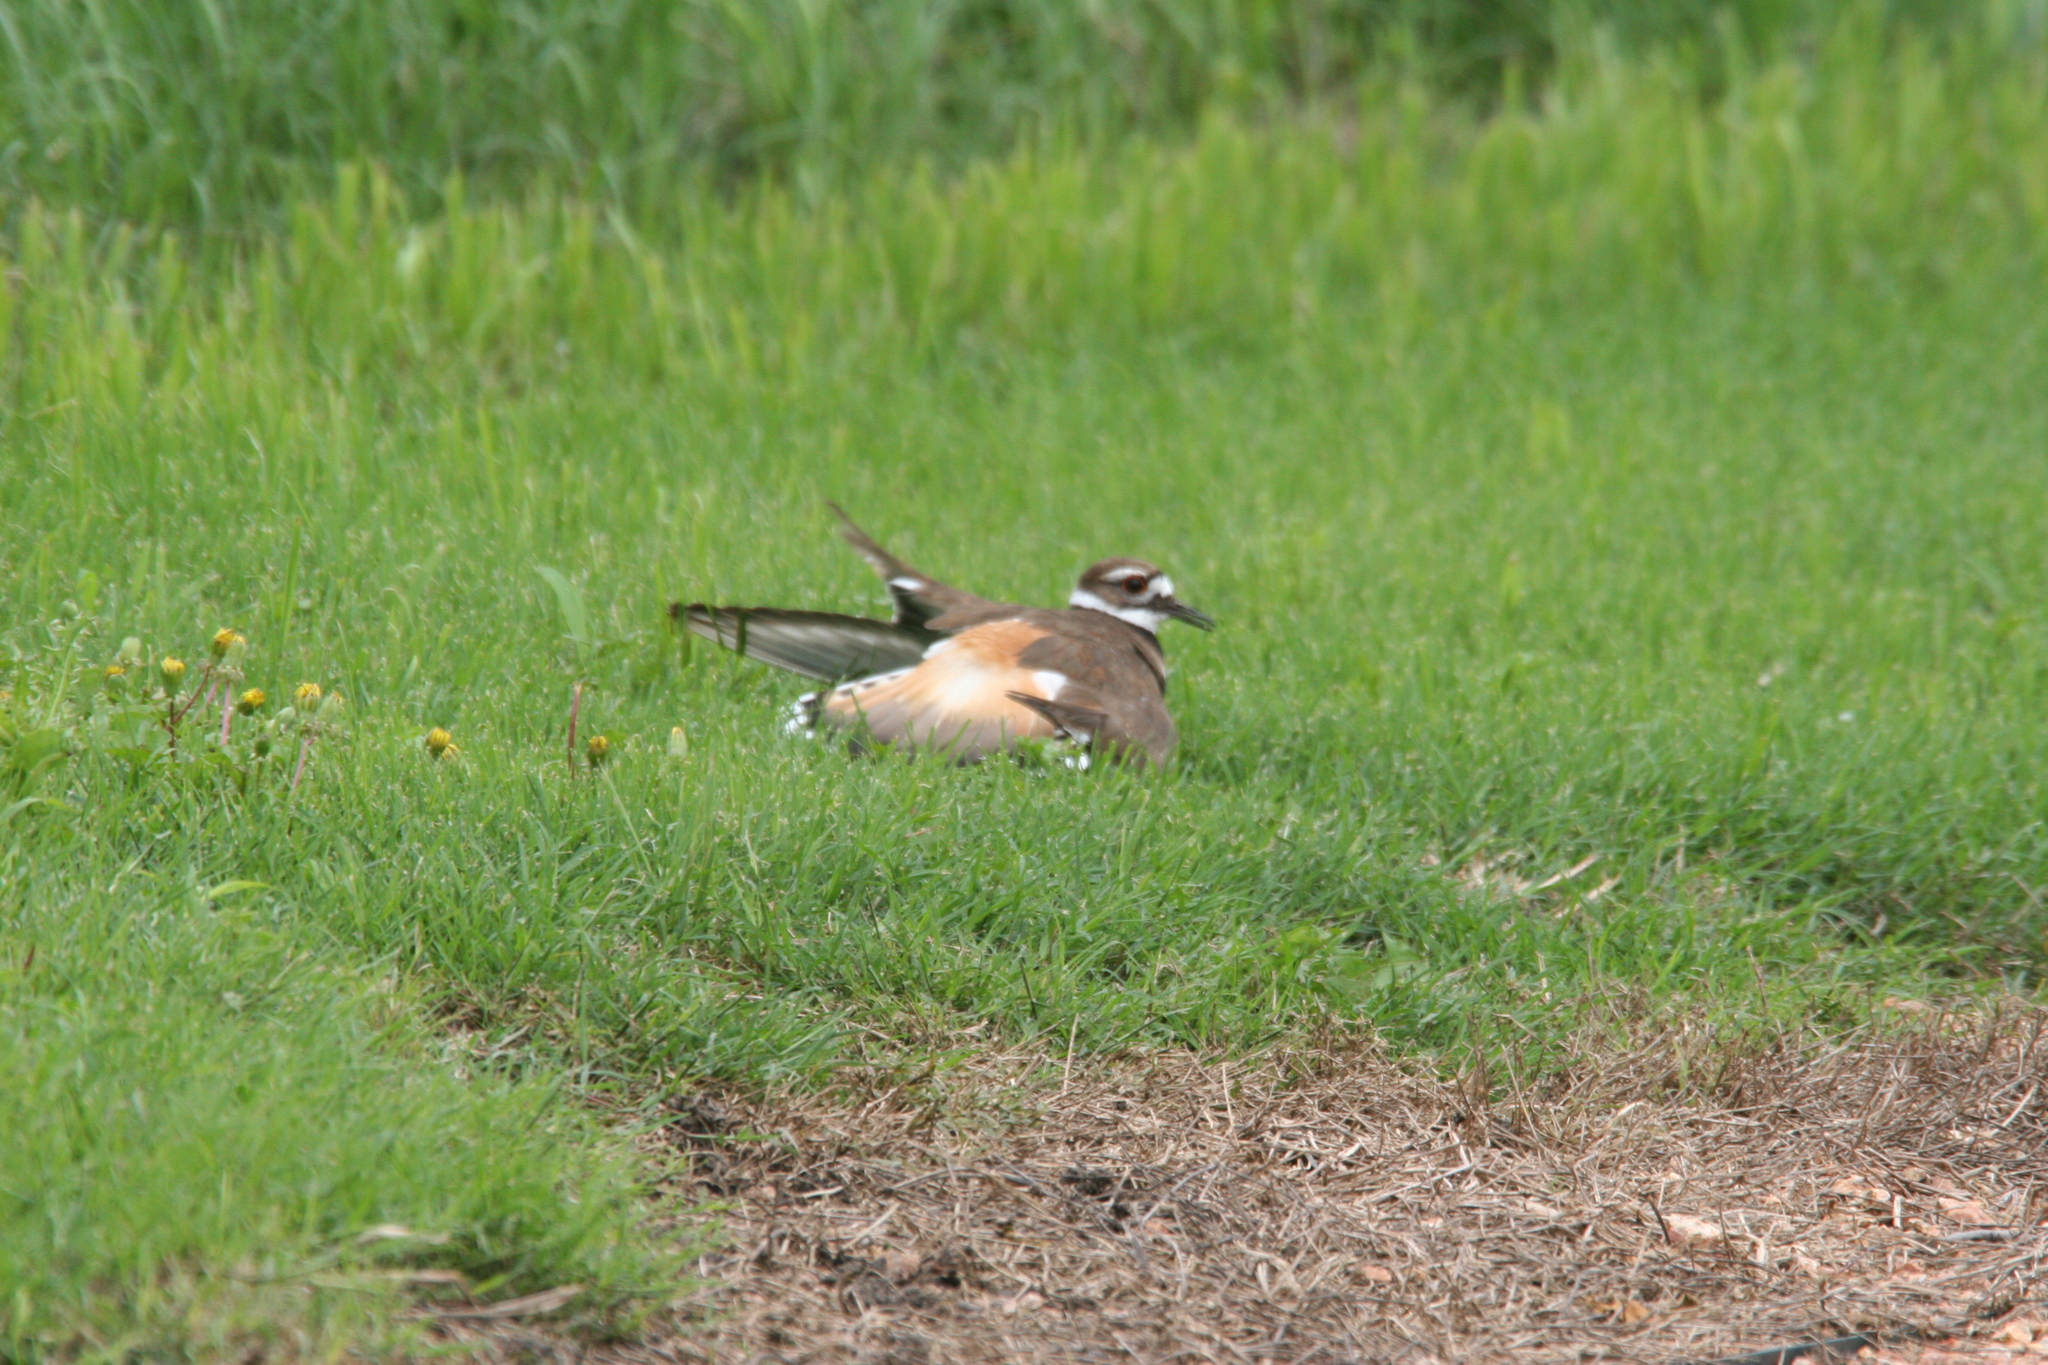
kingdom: Animalia
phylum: Chordata
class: Aves
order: Charadriiformes
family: Charadriidae
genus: Charadrius
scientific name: Charadrius vociferus
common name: Killdeer
